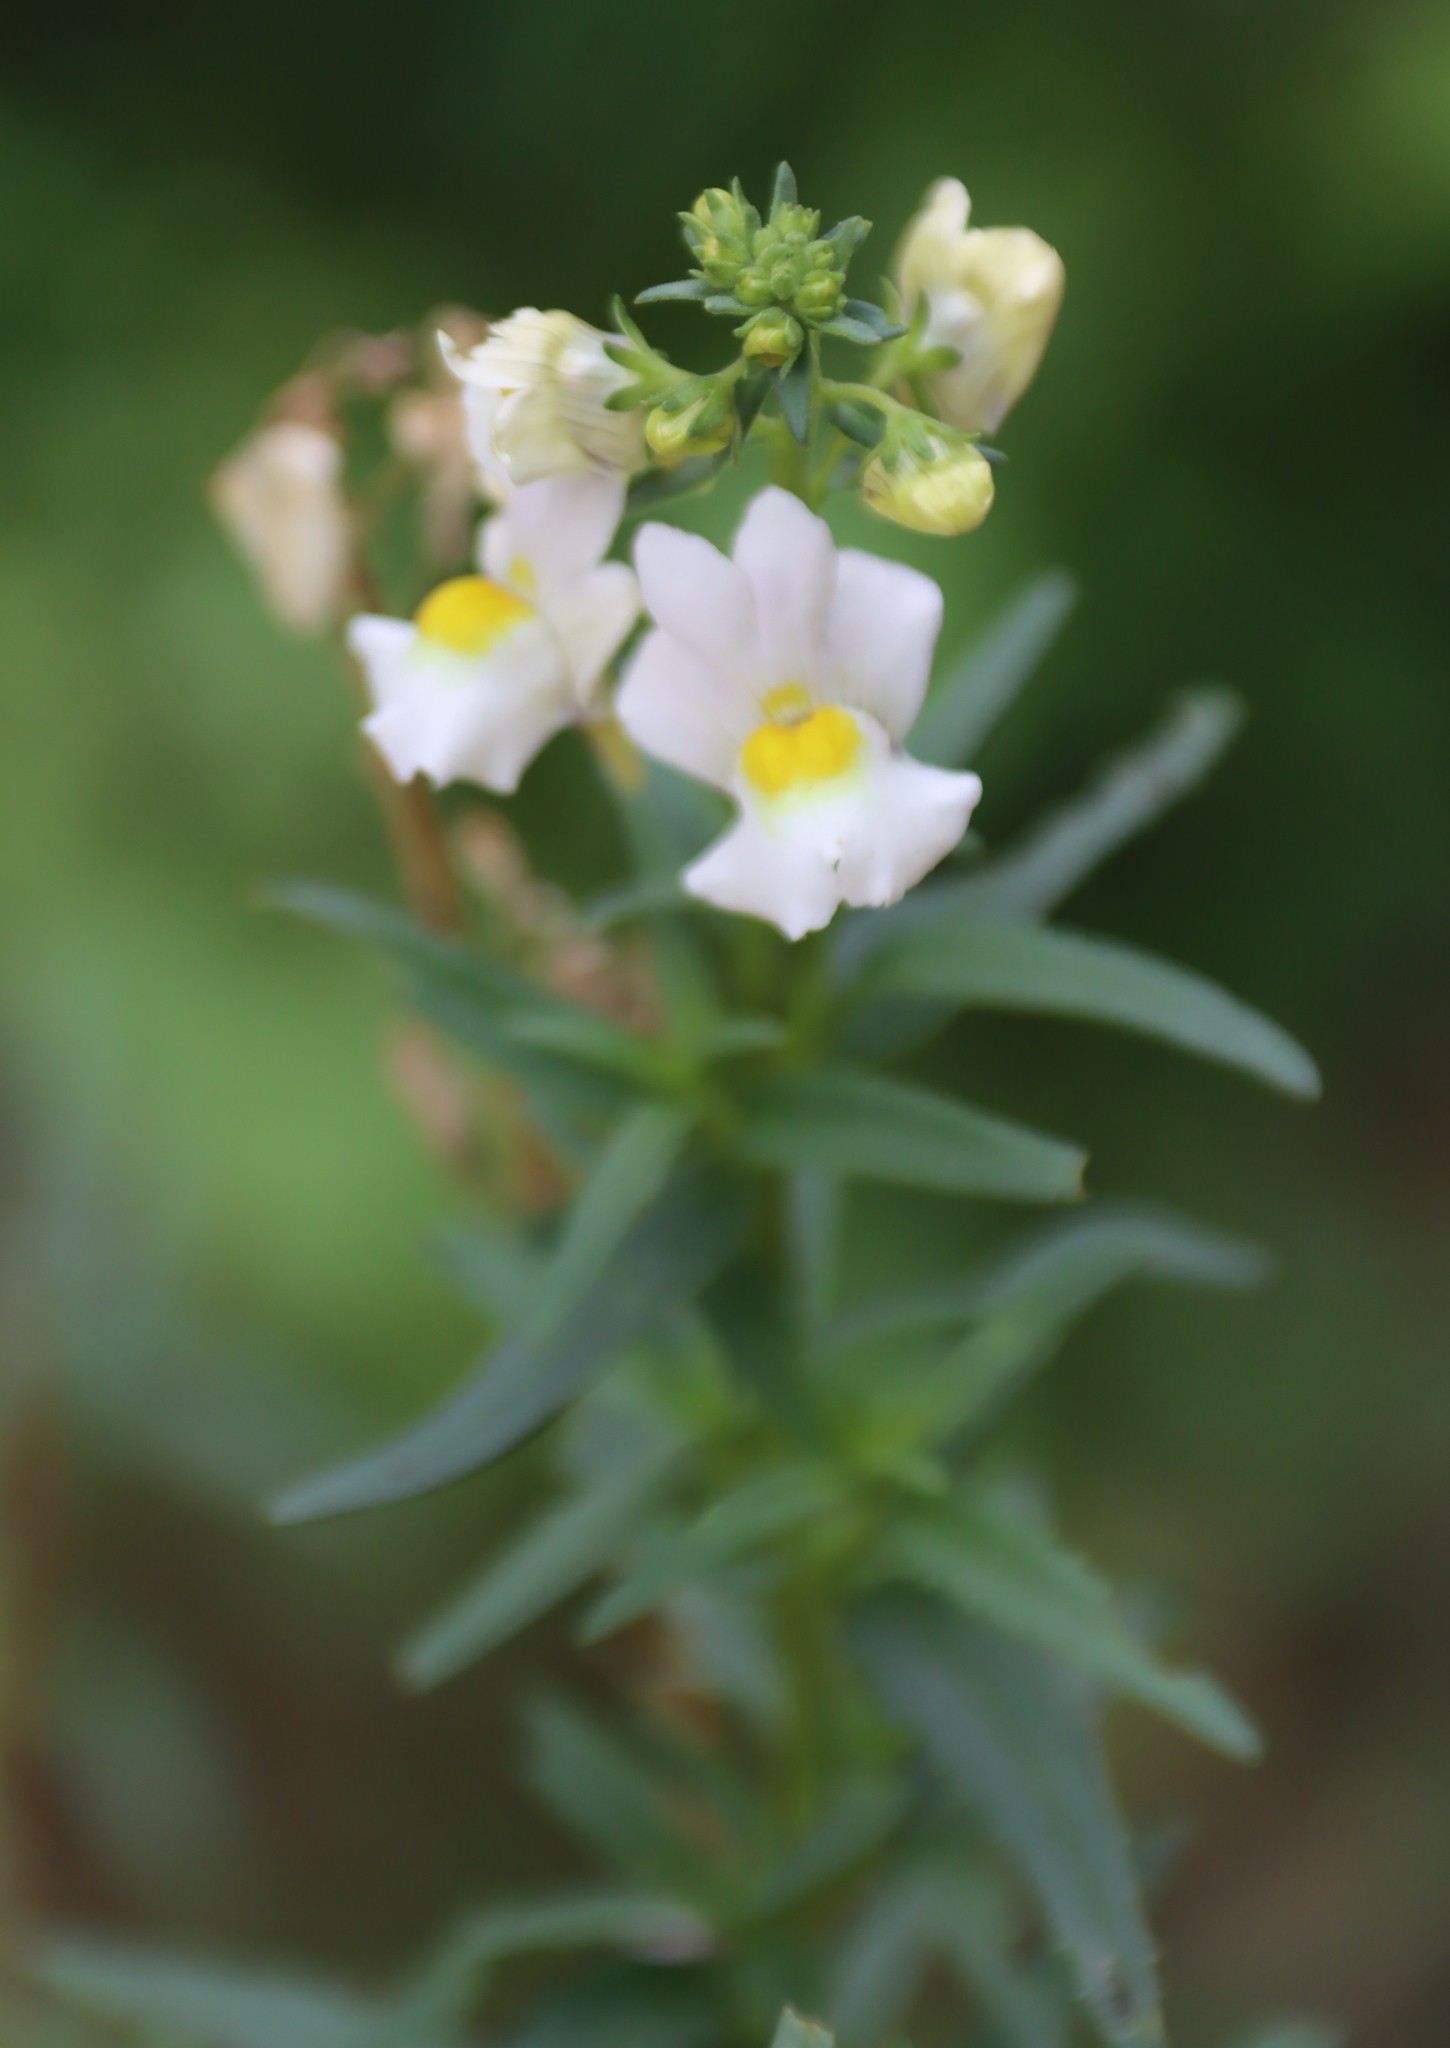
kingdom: Plantae
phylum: Tracheophyta
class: Magnoliopsida
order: Lamiales
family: Scrophulariaceae
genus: Nemesia
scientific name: Nemesia fruticans
